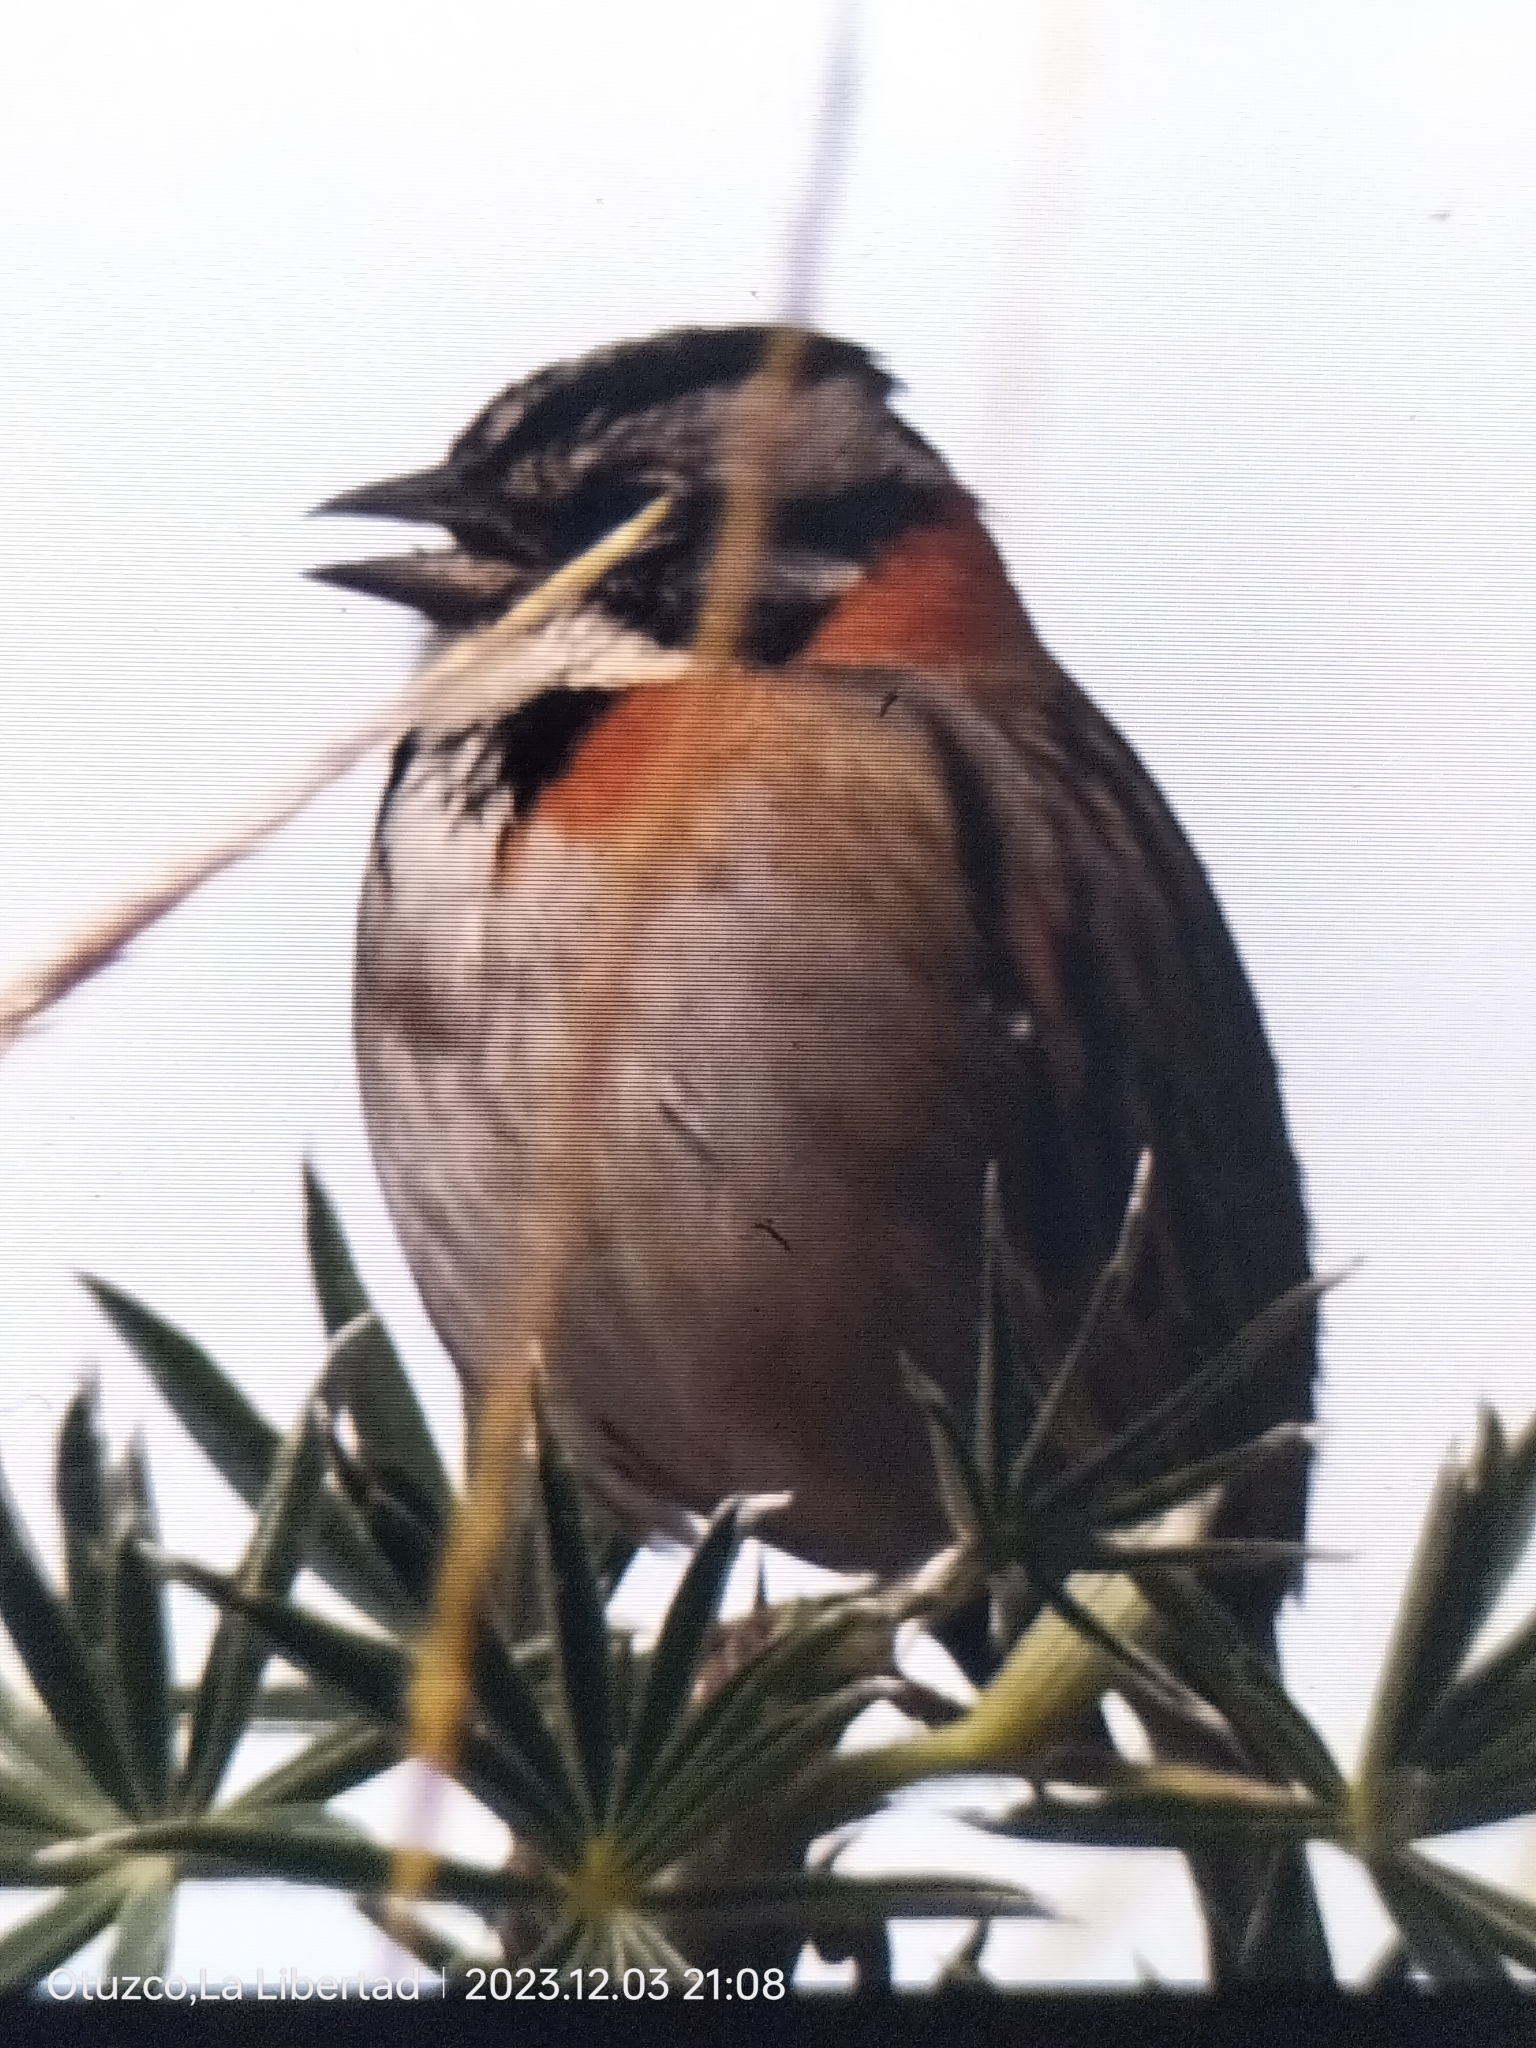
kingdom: Animalia
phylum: Chordata
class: Aves
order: Passeriformes
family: Passerellidae
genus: Zonotrichia
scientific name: Zonotrichia capensis
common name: Rufous-collared sparrow
